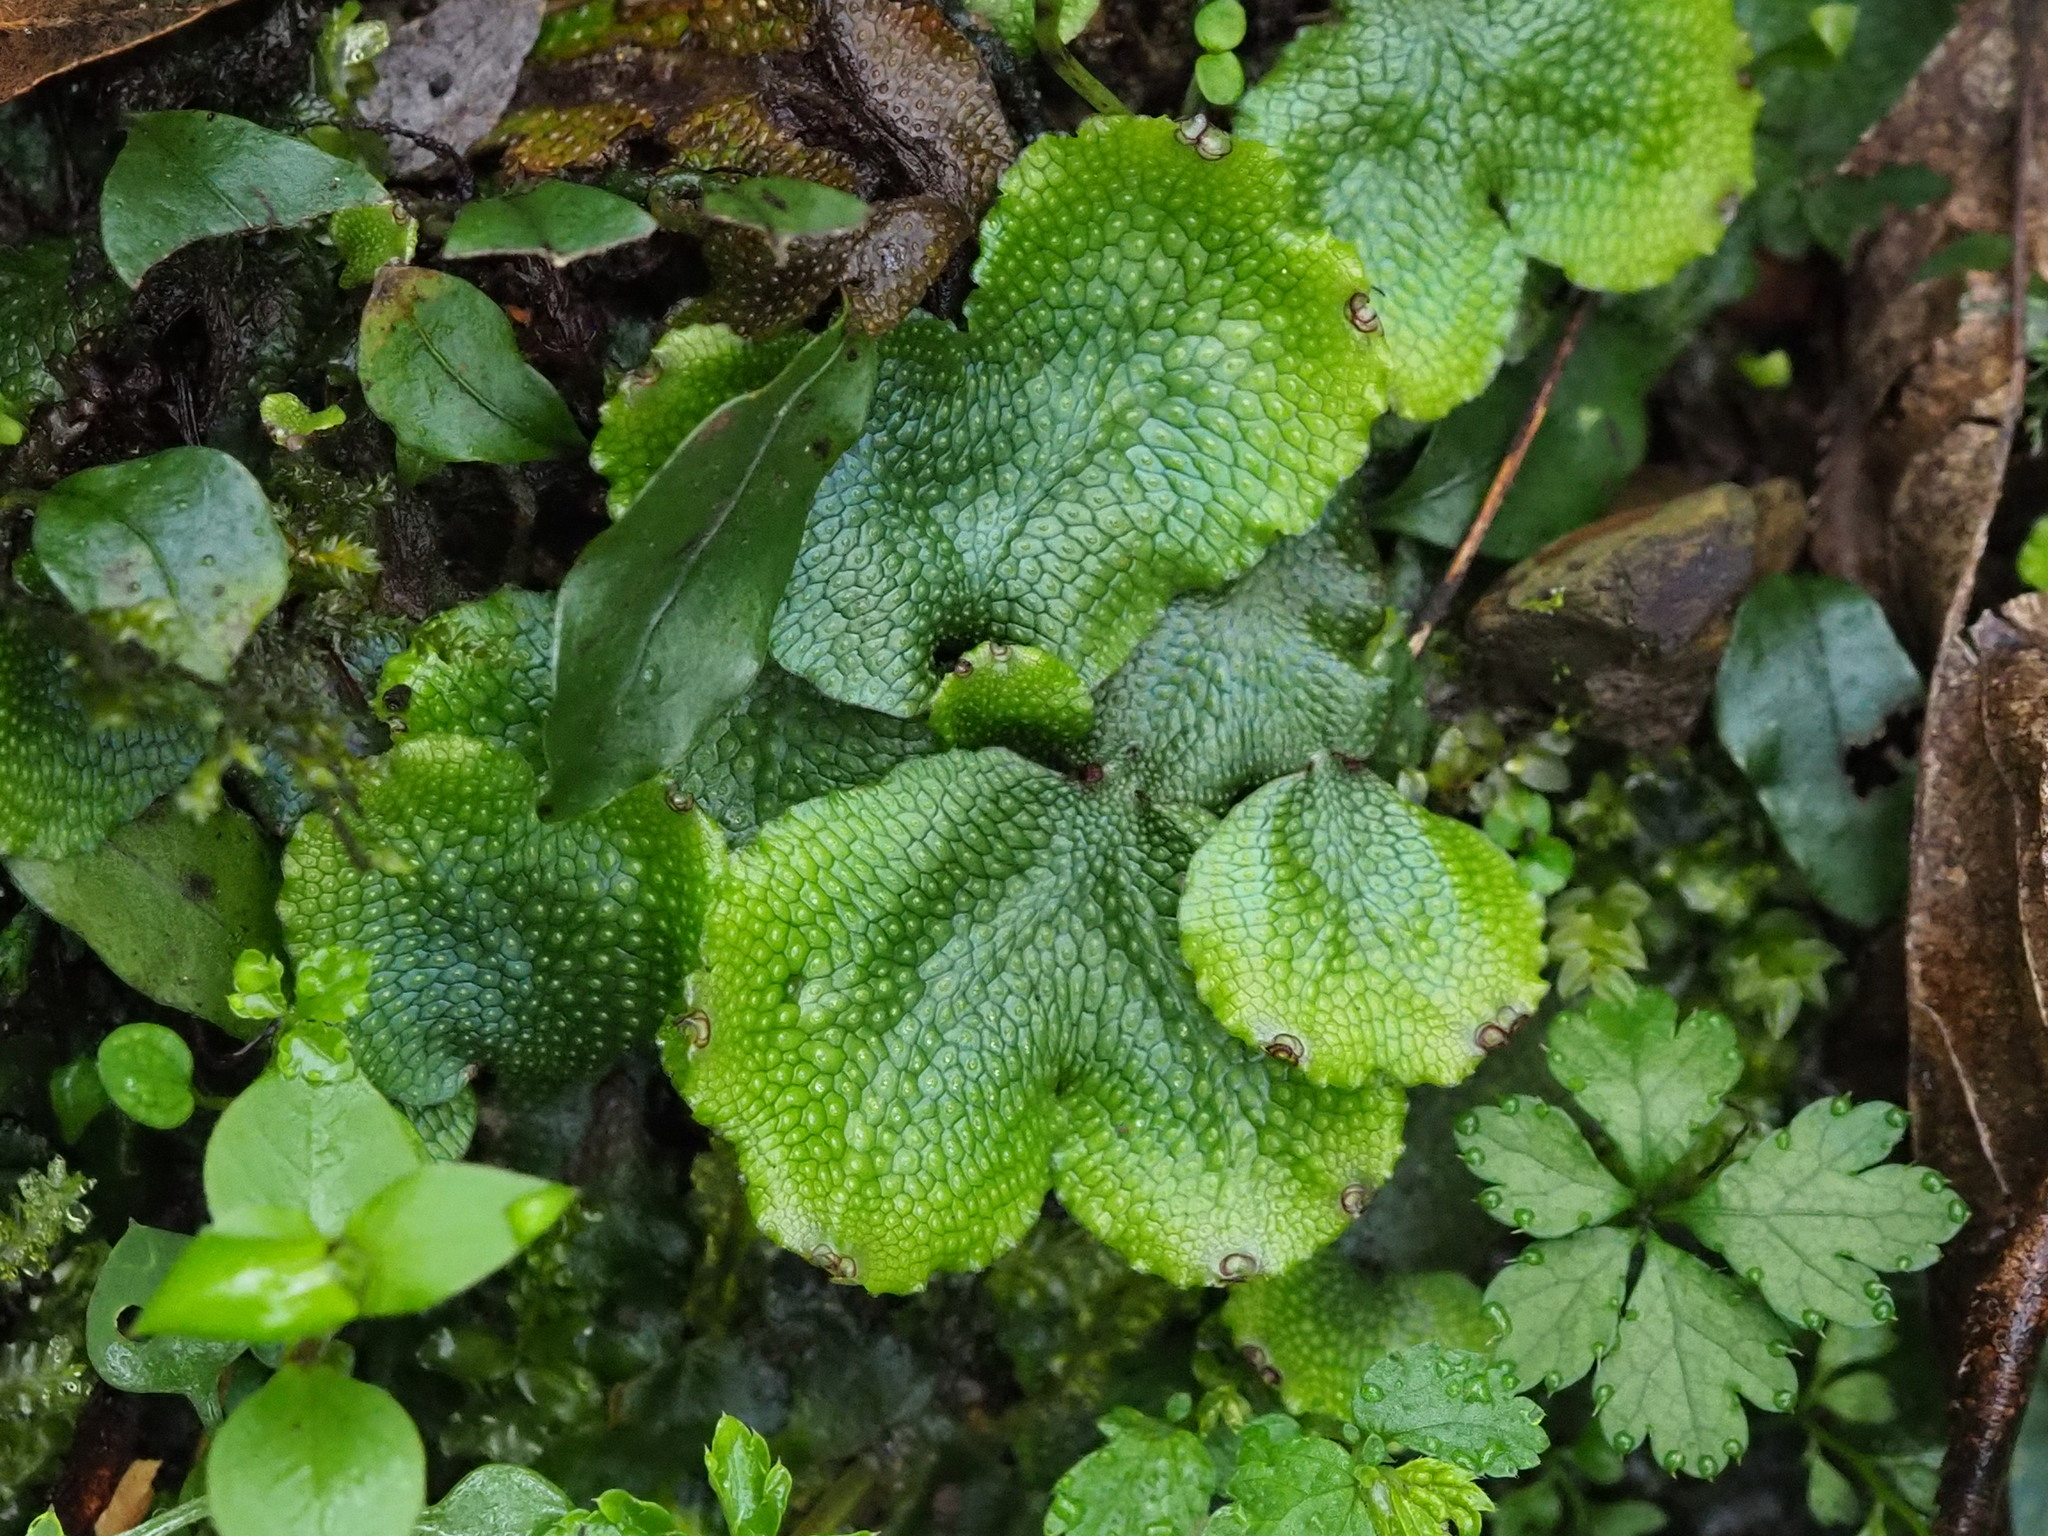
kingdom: Plantae
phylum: Marchantiophyta
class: Marchantiopsida
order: Marchantiales
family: Conocephalaceae
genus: Conocephalum
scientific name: Conocephalum conicum
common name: Great scented liverwort
